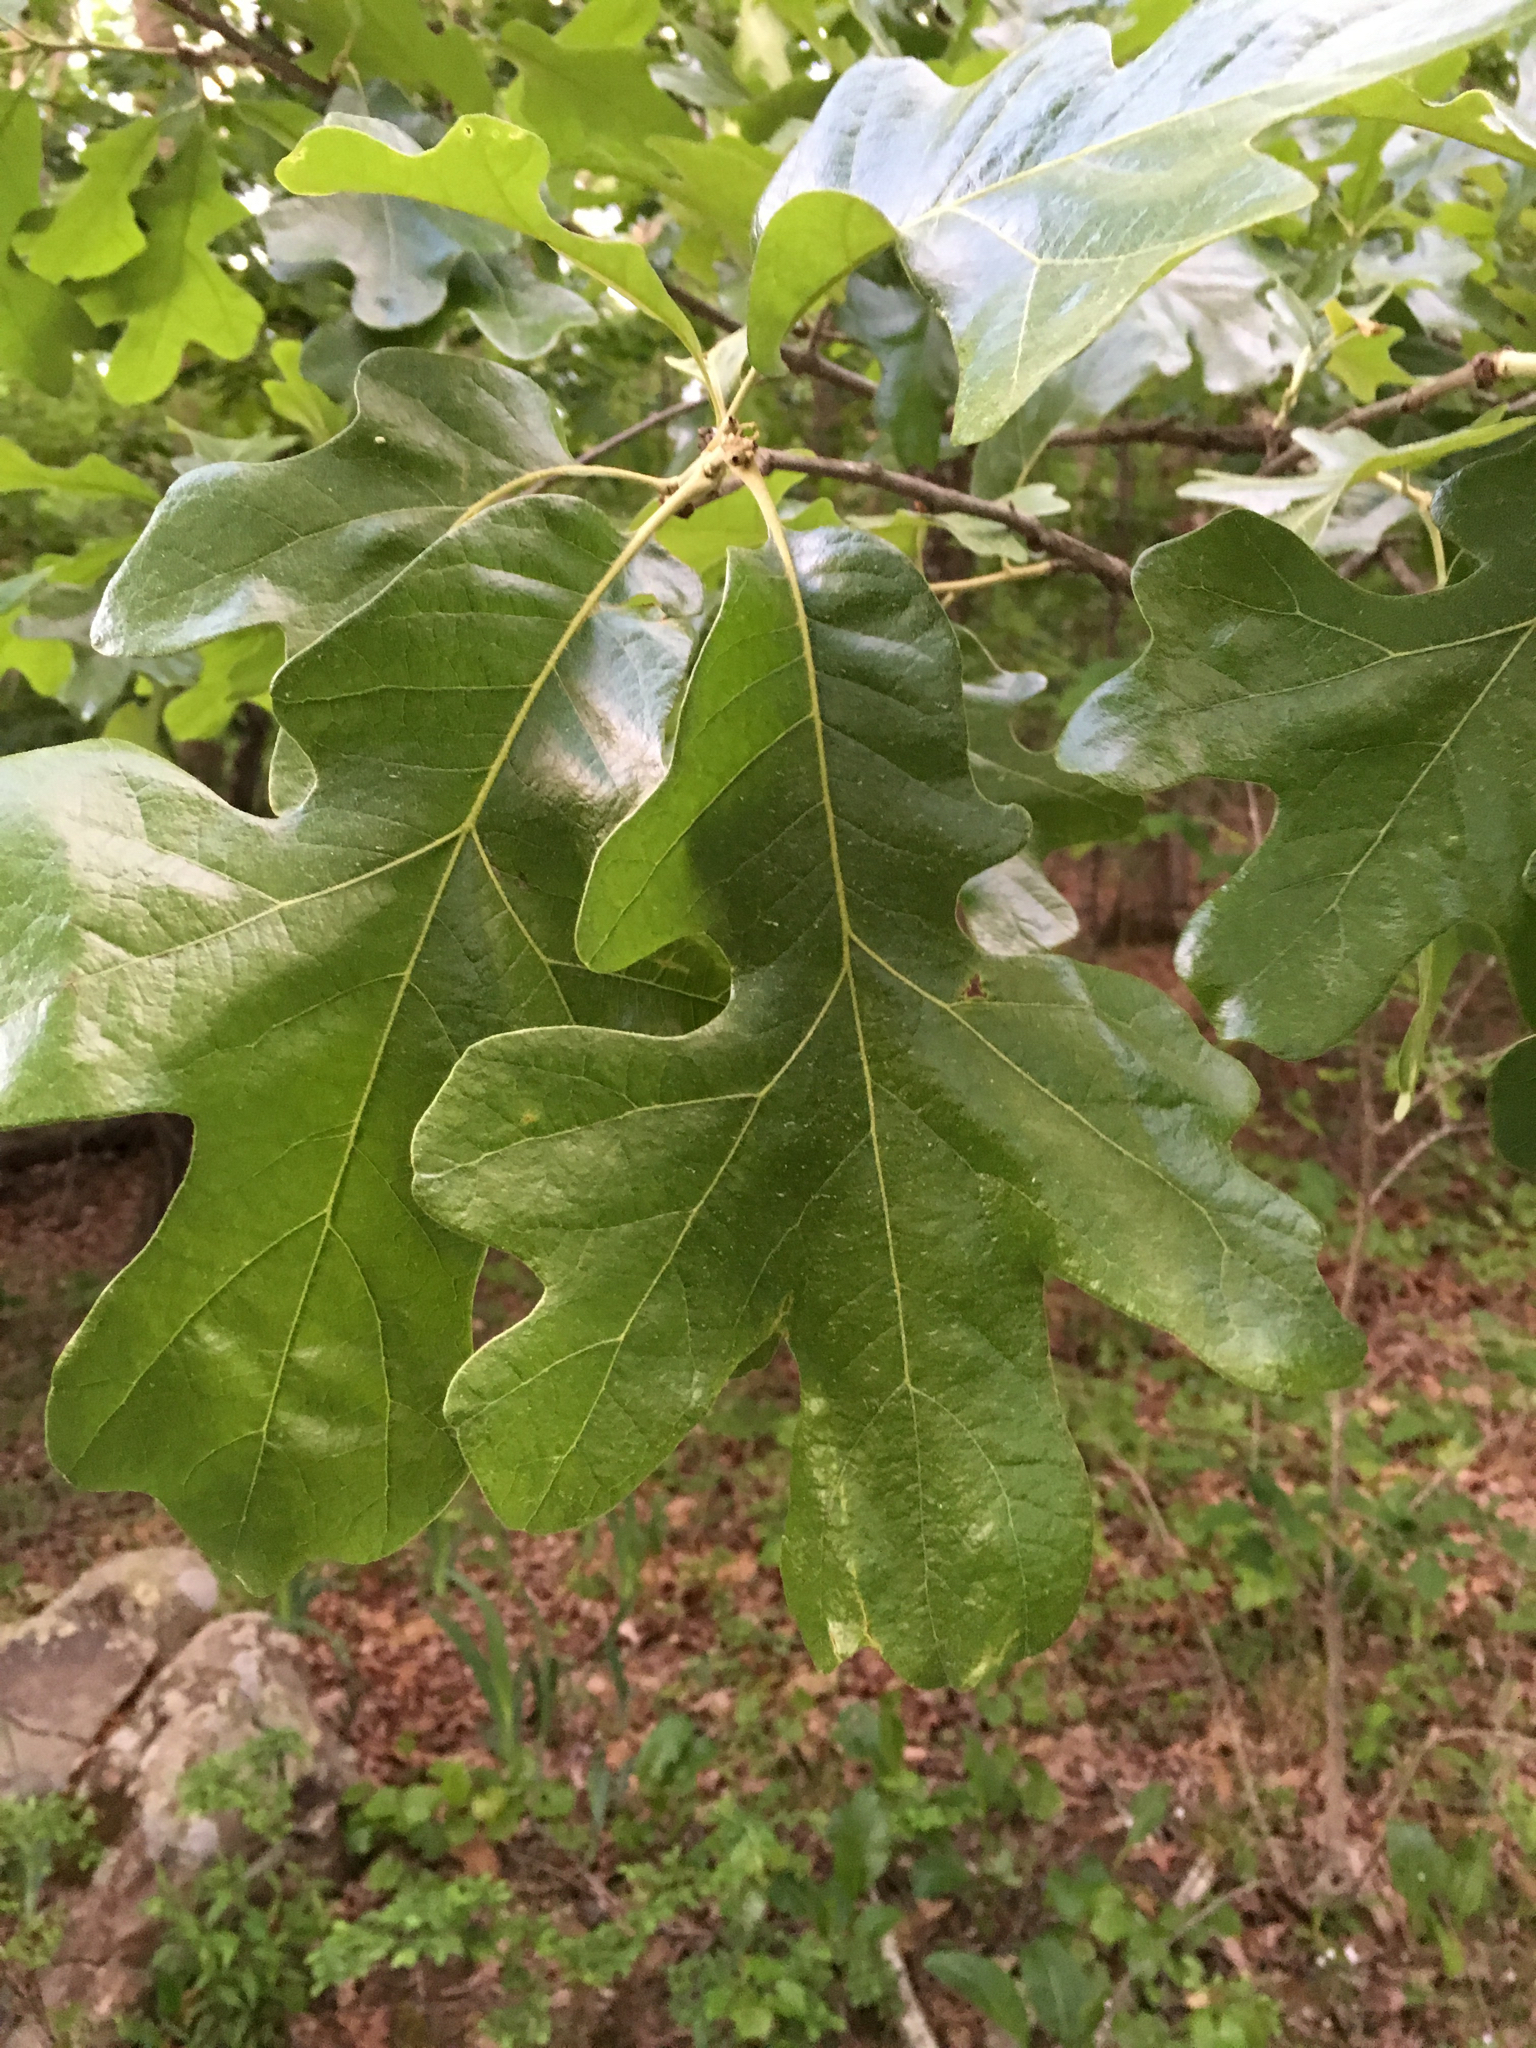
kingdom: Plantae
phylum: Tracheophyta
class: Magnoliopsida
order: Fagales
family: Fagaceae
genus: Quercus
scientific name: Quercus stellata
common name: Post oak
